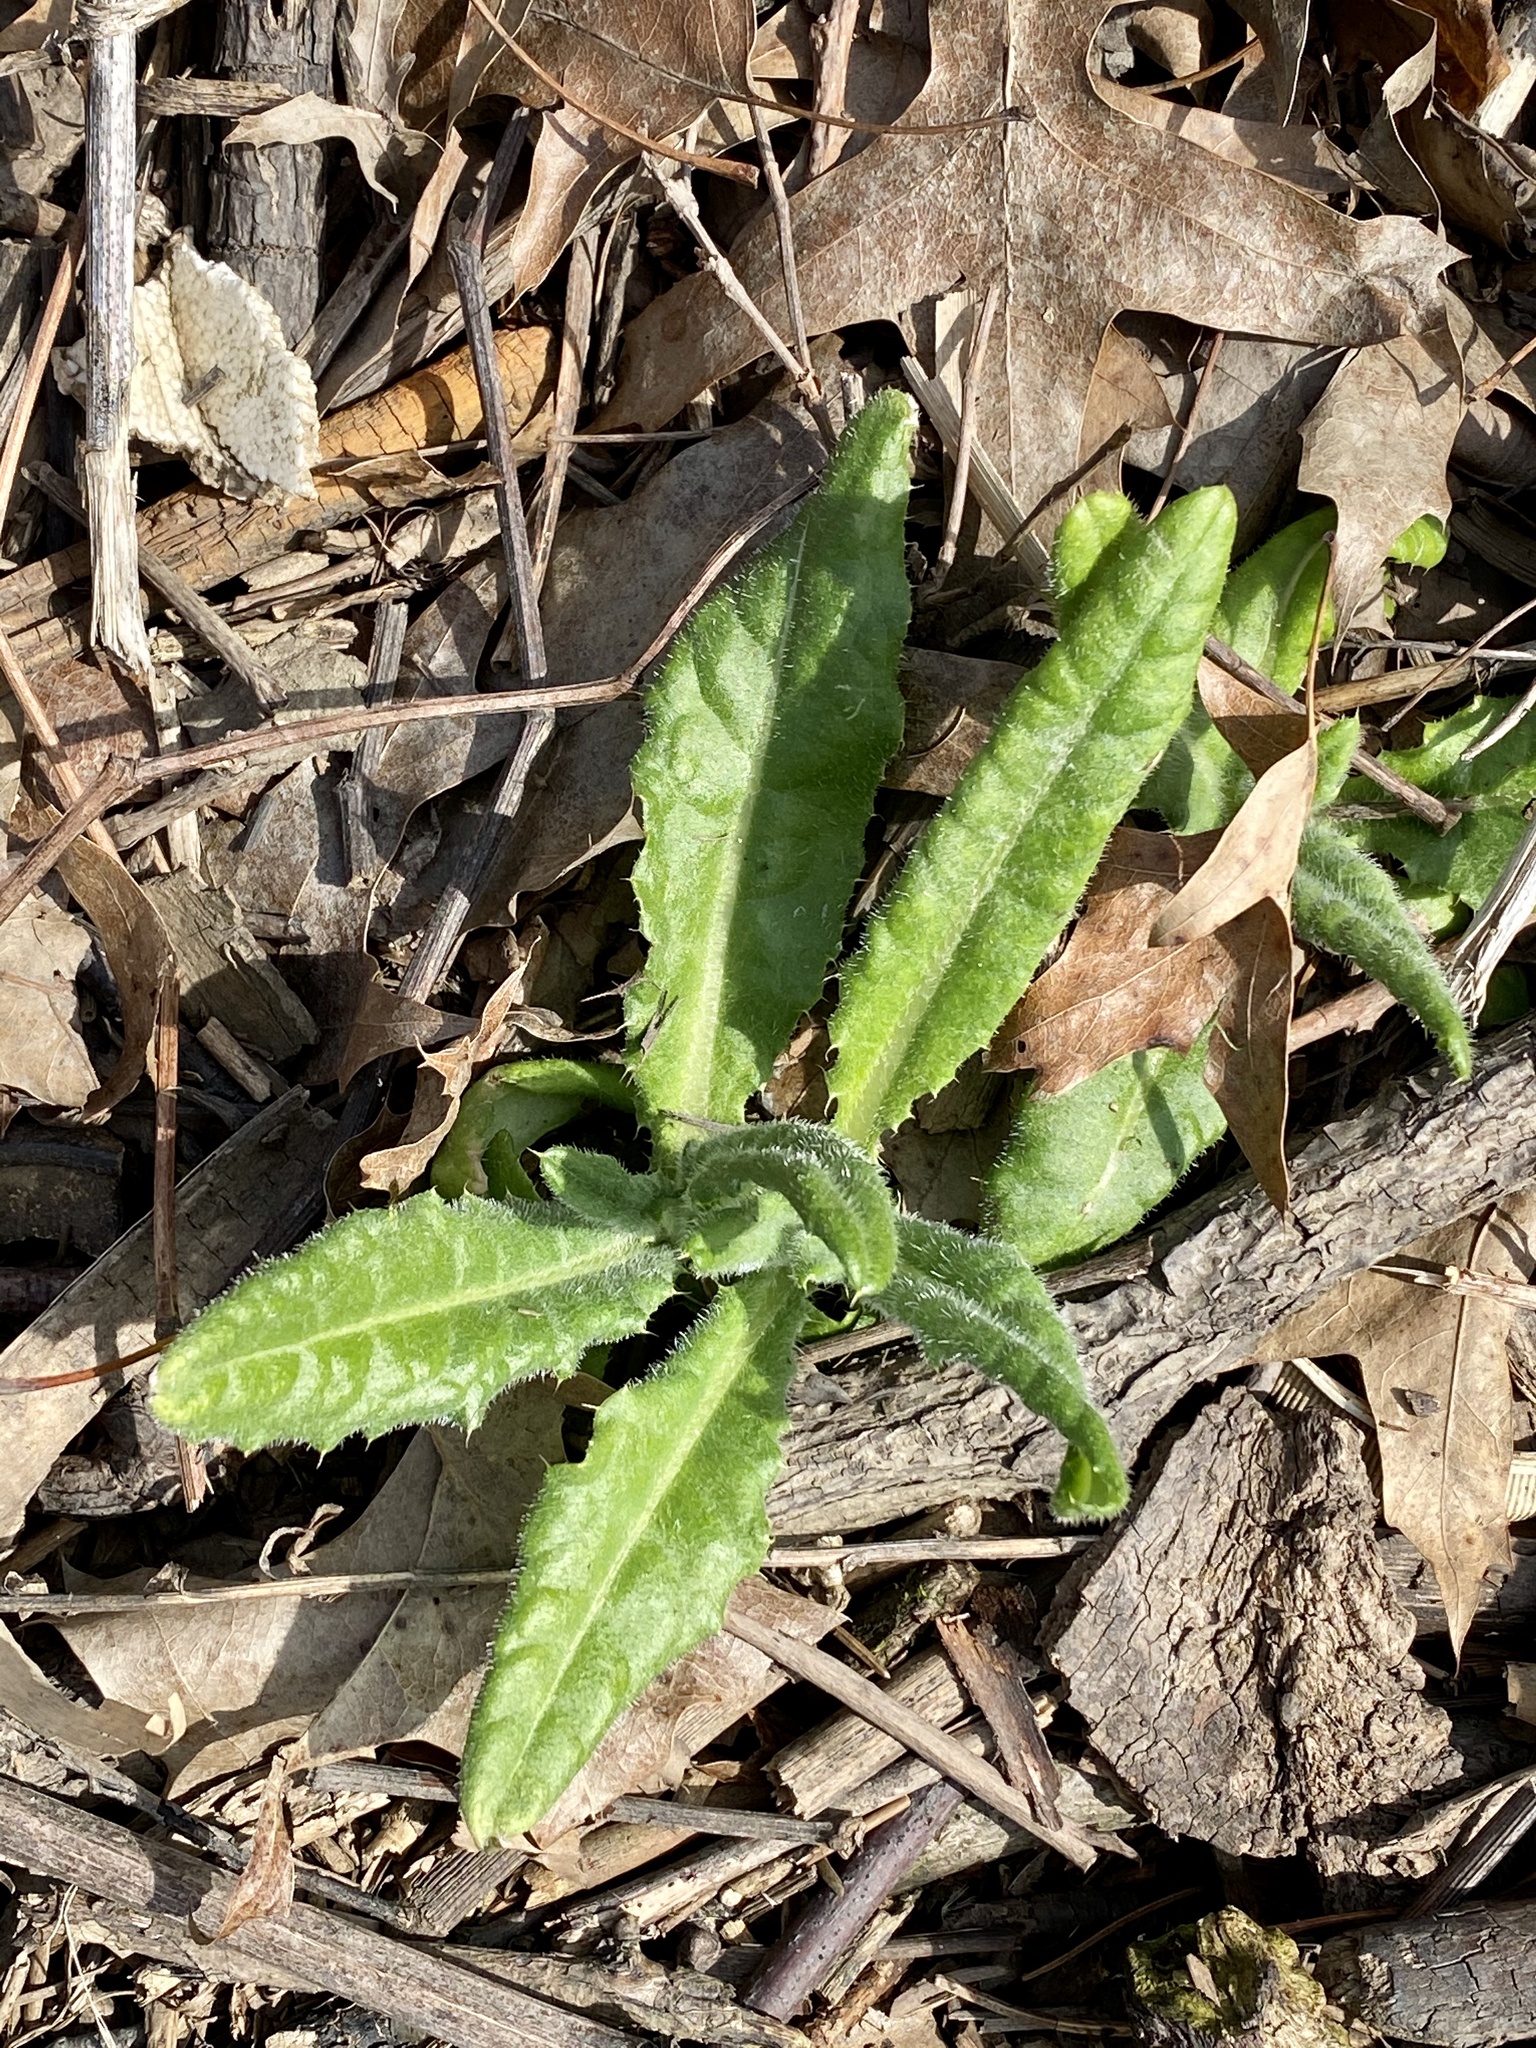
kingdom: Plantae
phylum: Tracheophyta
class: Magnoliopsida
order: Asterales
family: Asteraceae
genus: Cirsium
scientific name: Cirsium arvense
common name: Creeping thistle
